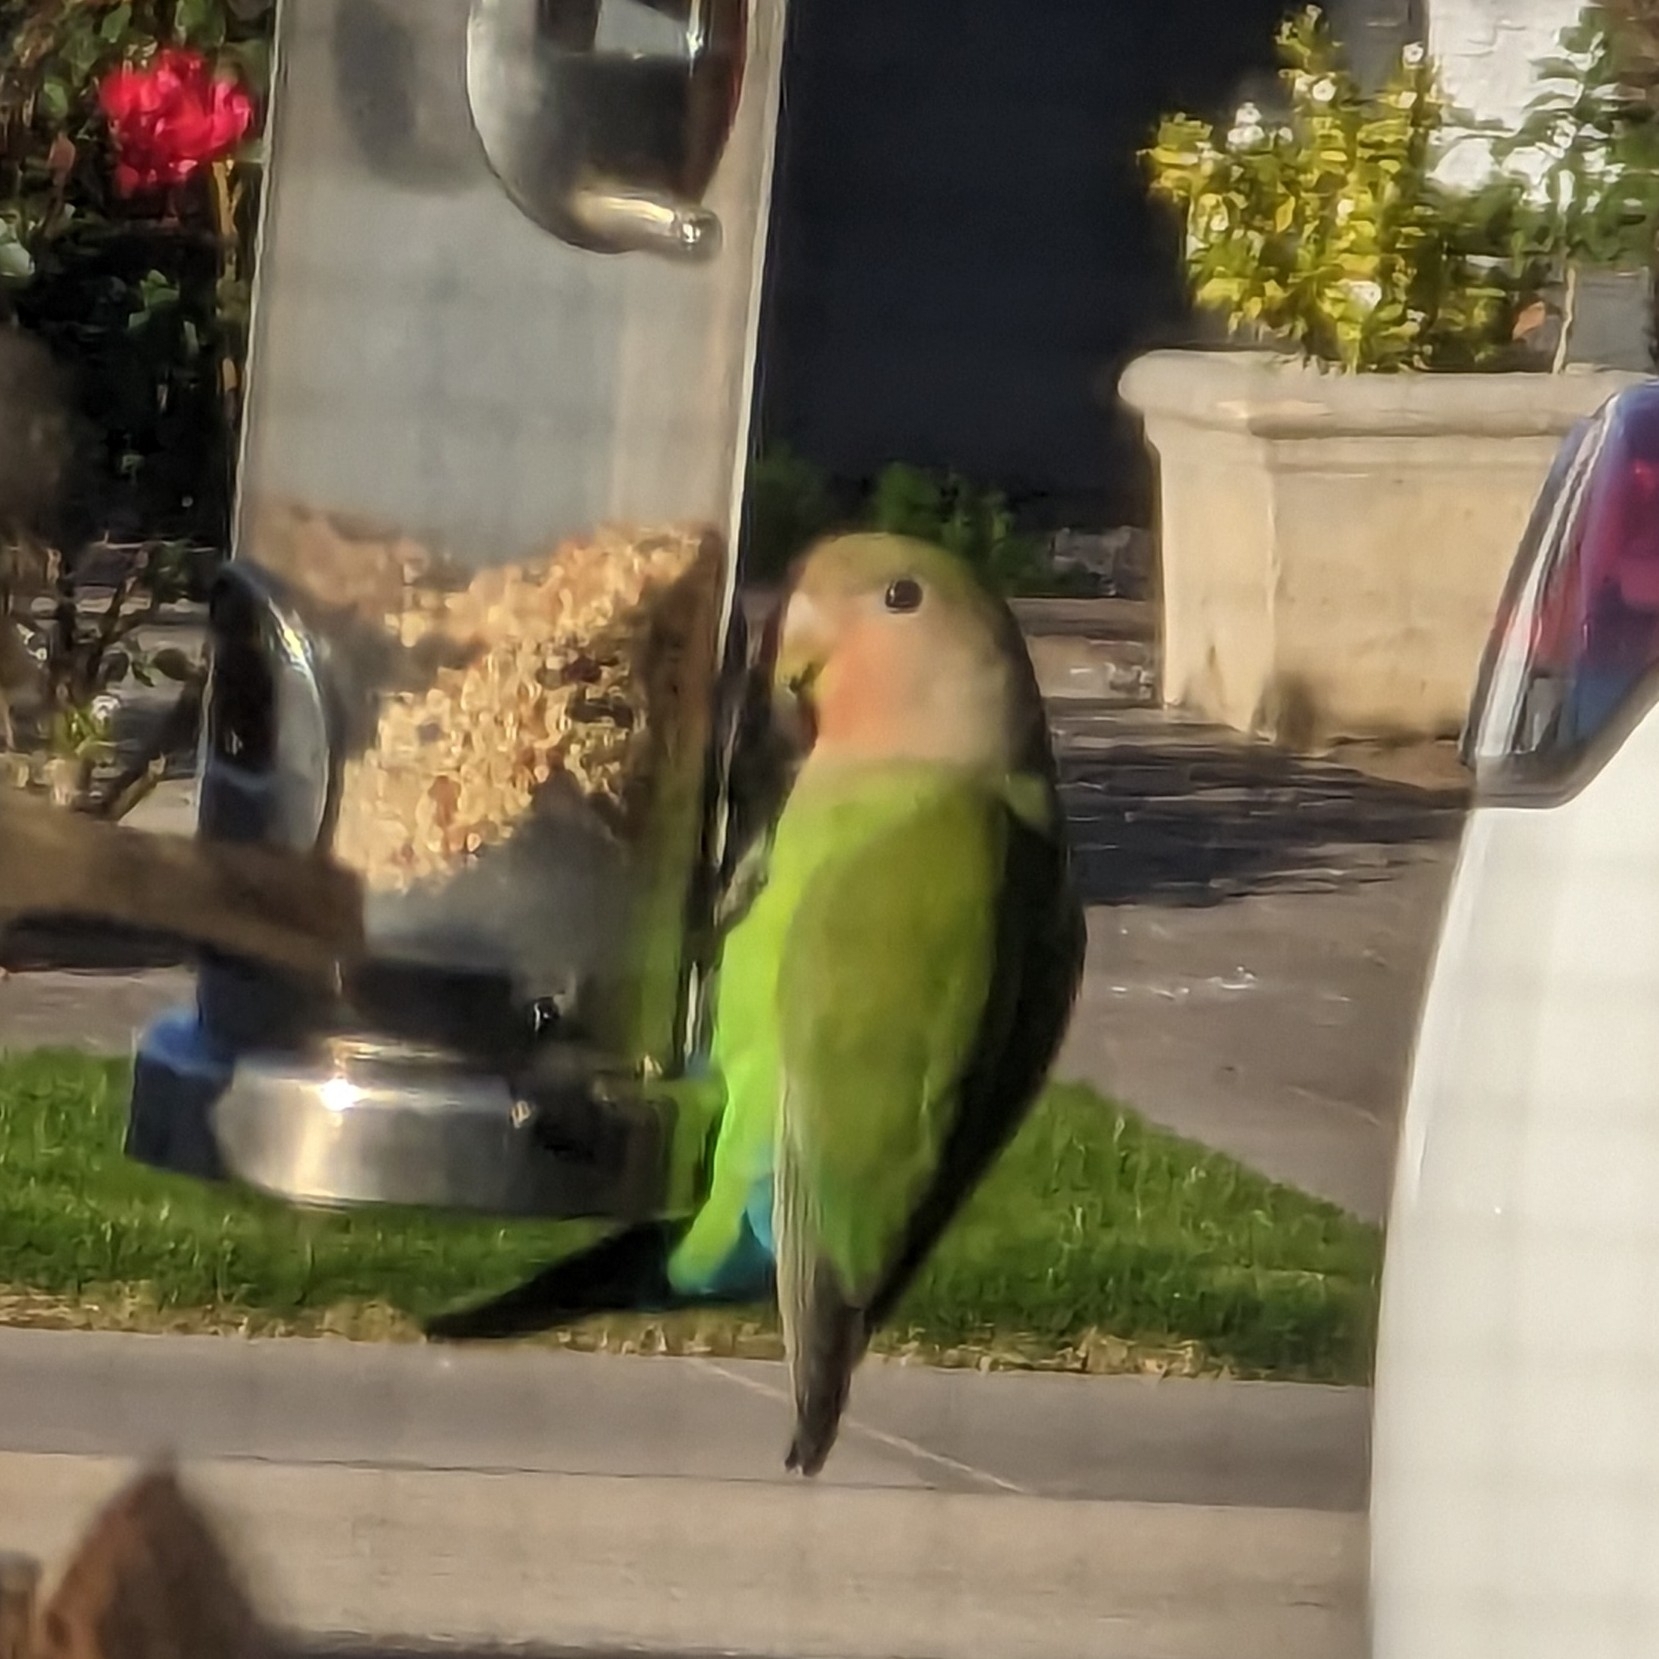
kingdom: Animalia
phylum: Chordata
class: Aves
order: Psittaciformes
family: Psittacidae
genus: Agapornis
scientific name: Agapornis roseicollis
